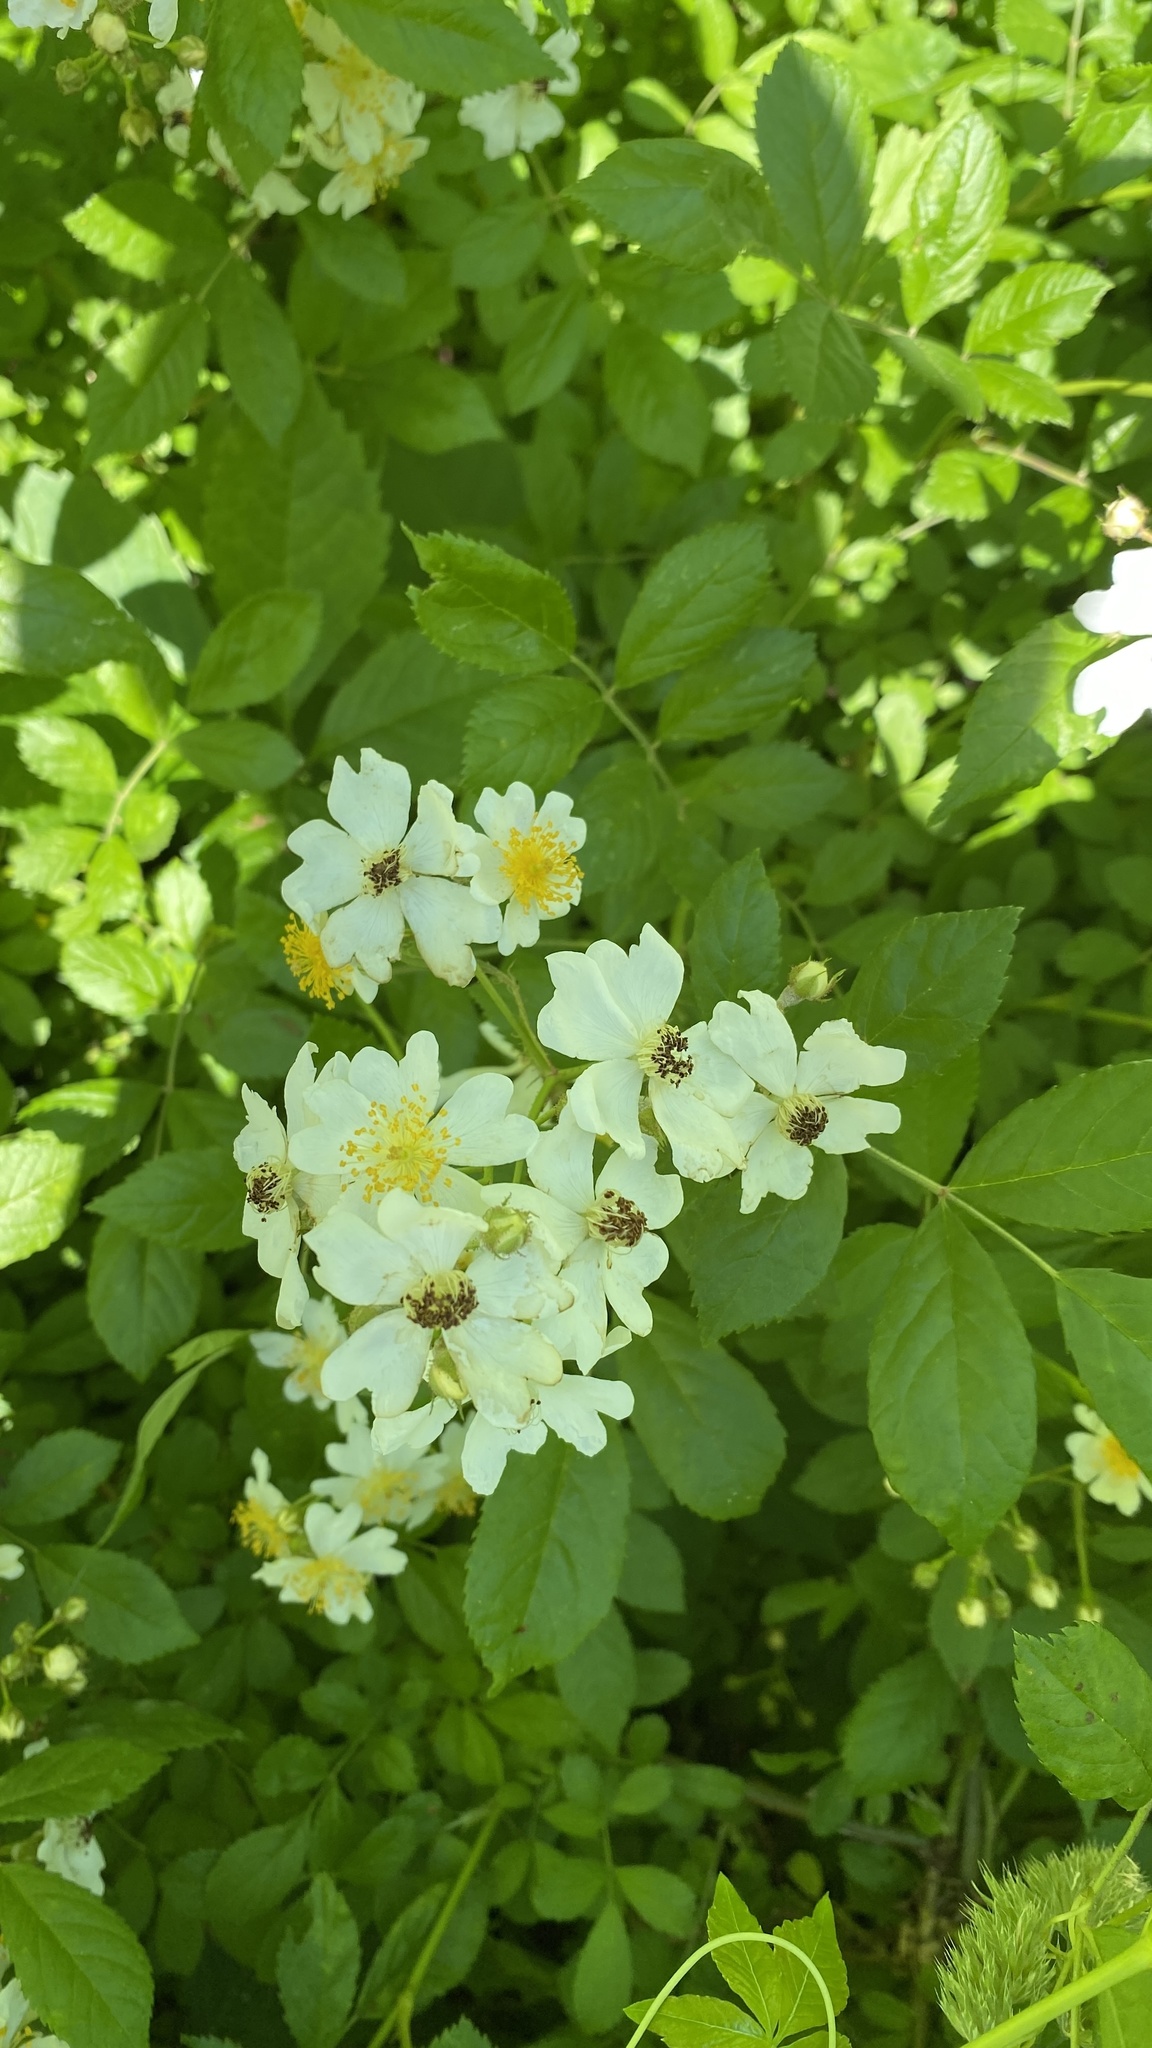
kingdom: Plantae
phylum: Tracheophyta
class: Magnoliopsida
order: Rosales
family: Rosaceae
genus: Rosa
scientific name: Rosa multiflora
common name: Multiflora rose
